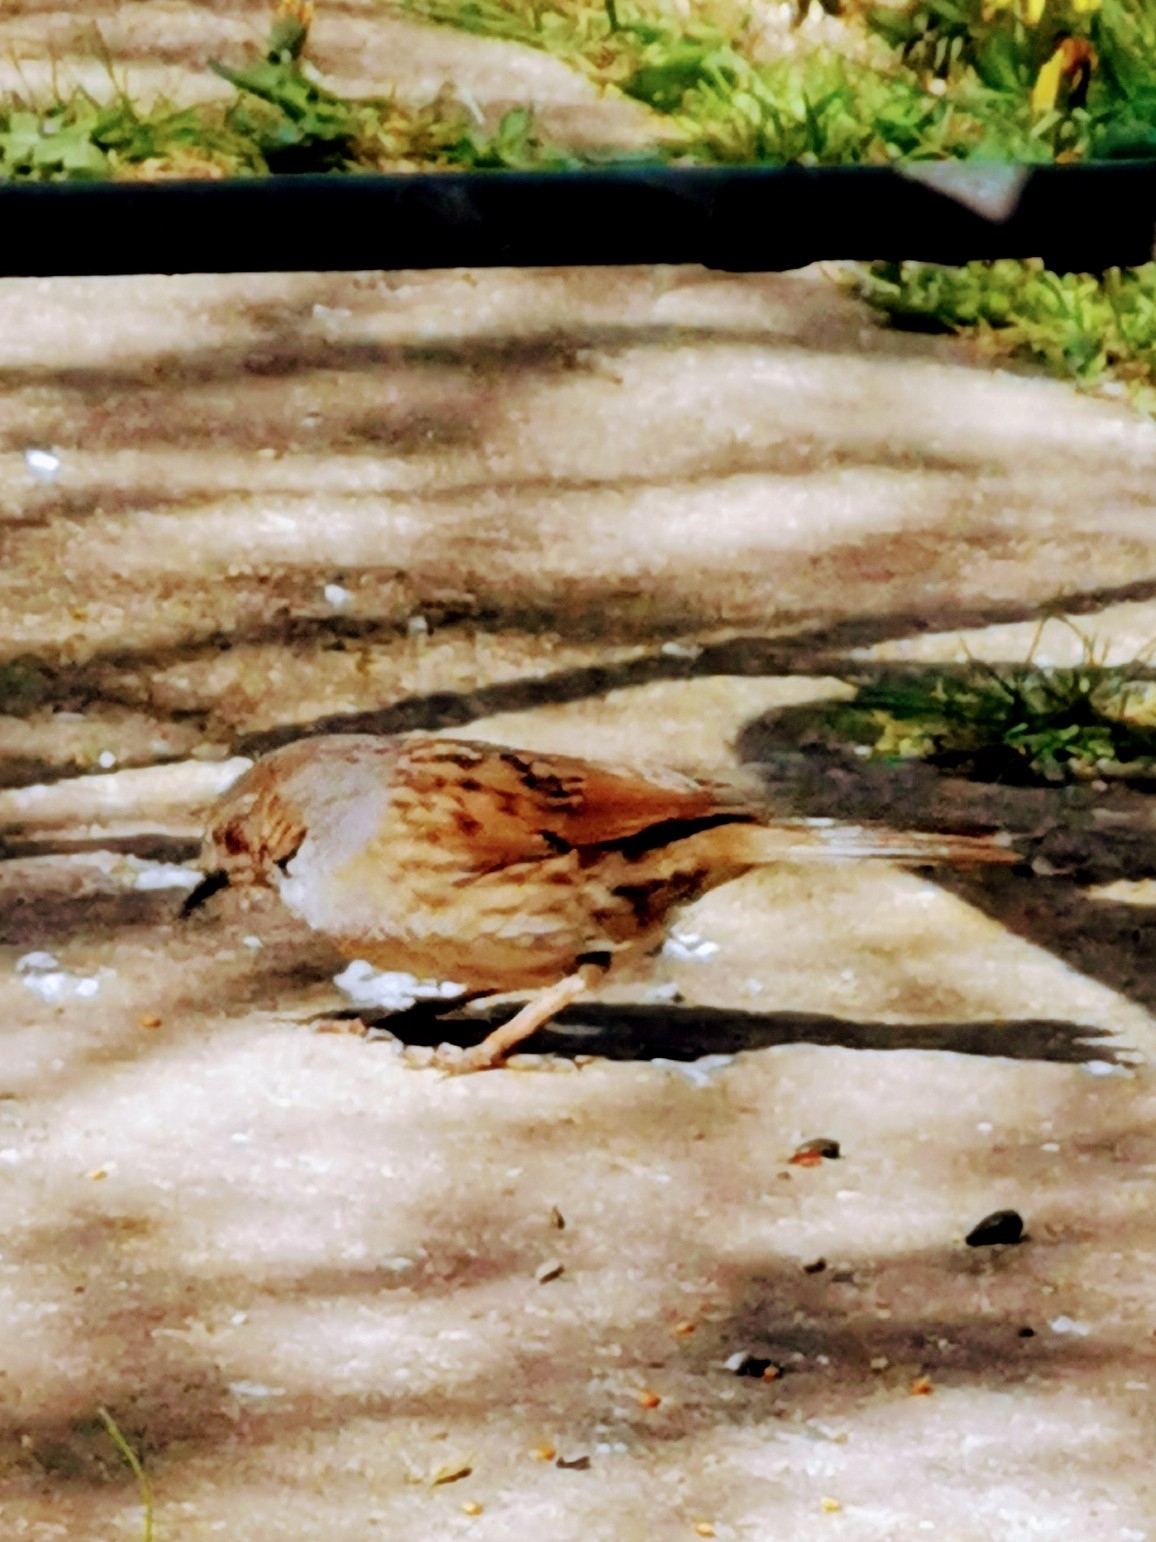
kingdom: Animalia
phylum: Chordata
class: Aves
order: Passeriformes
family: Prunellidae
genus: Prunella
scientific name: Prunella modularis
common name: Dunnock
